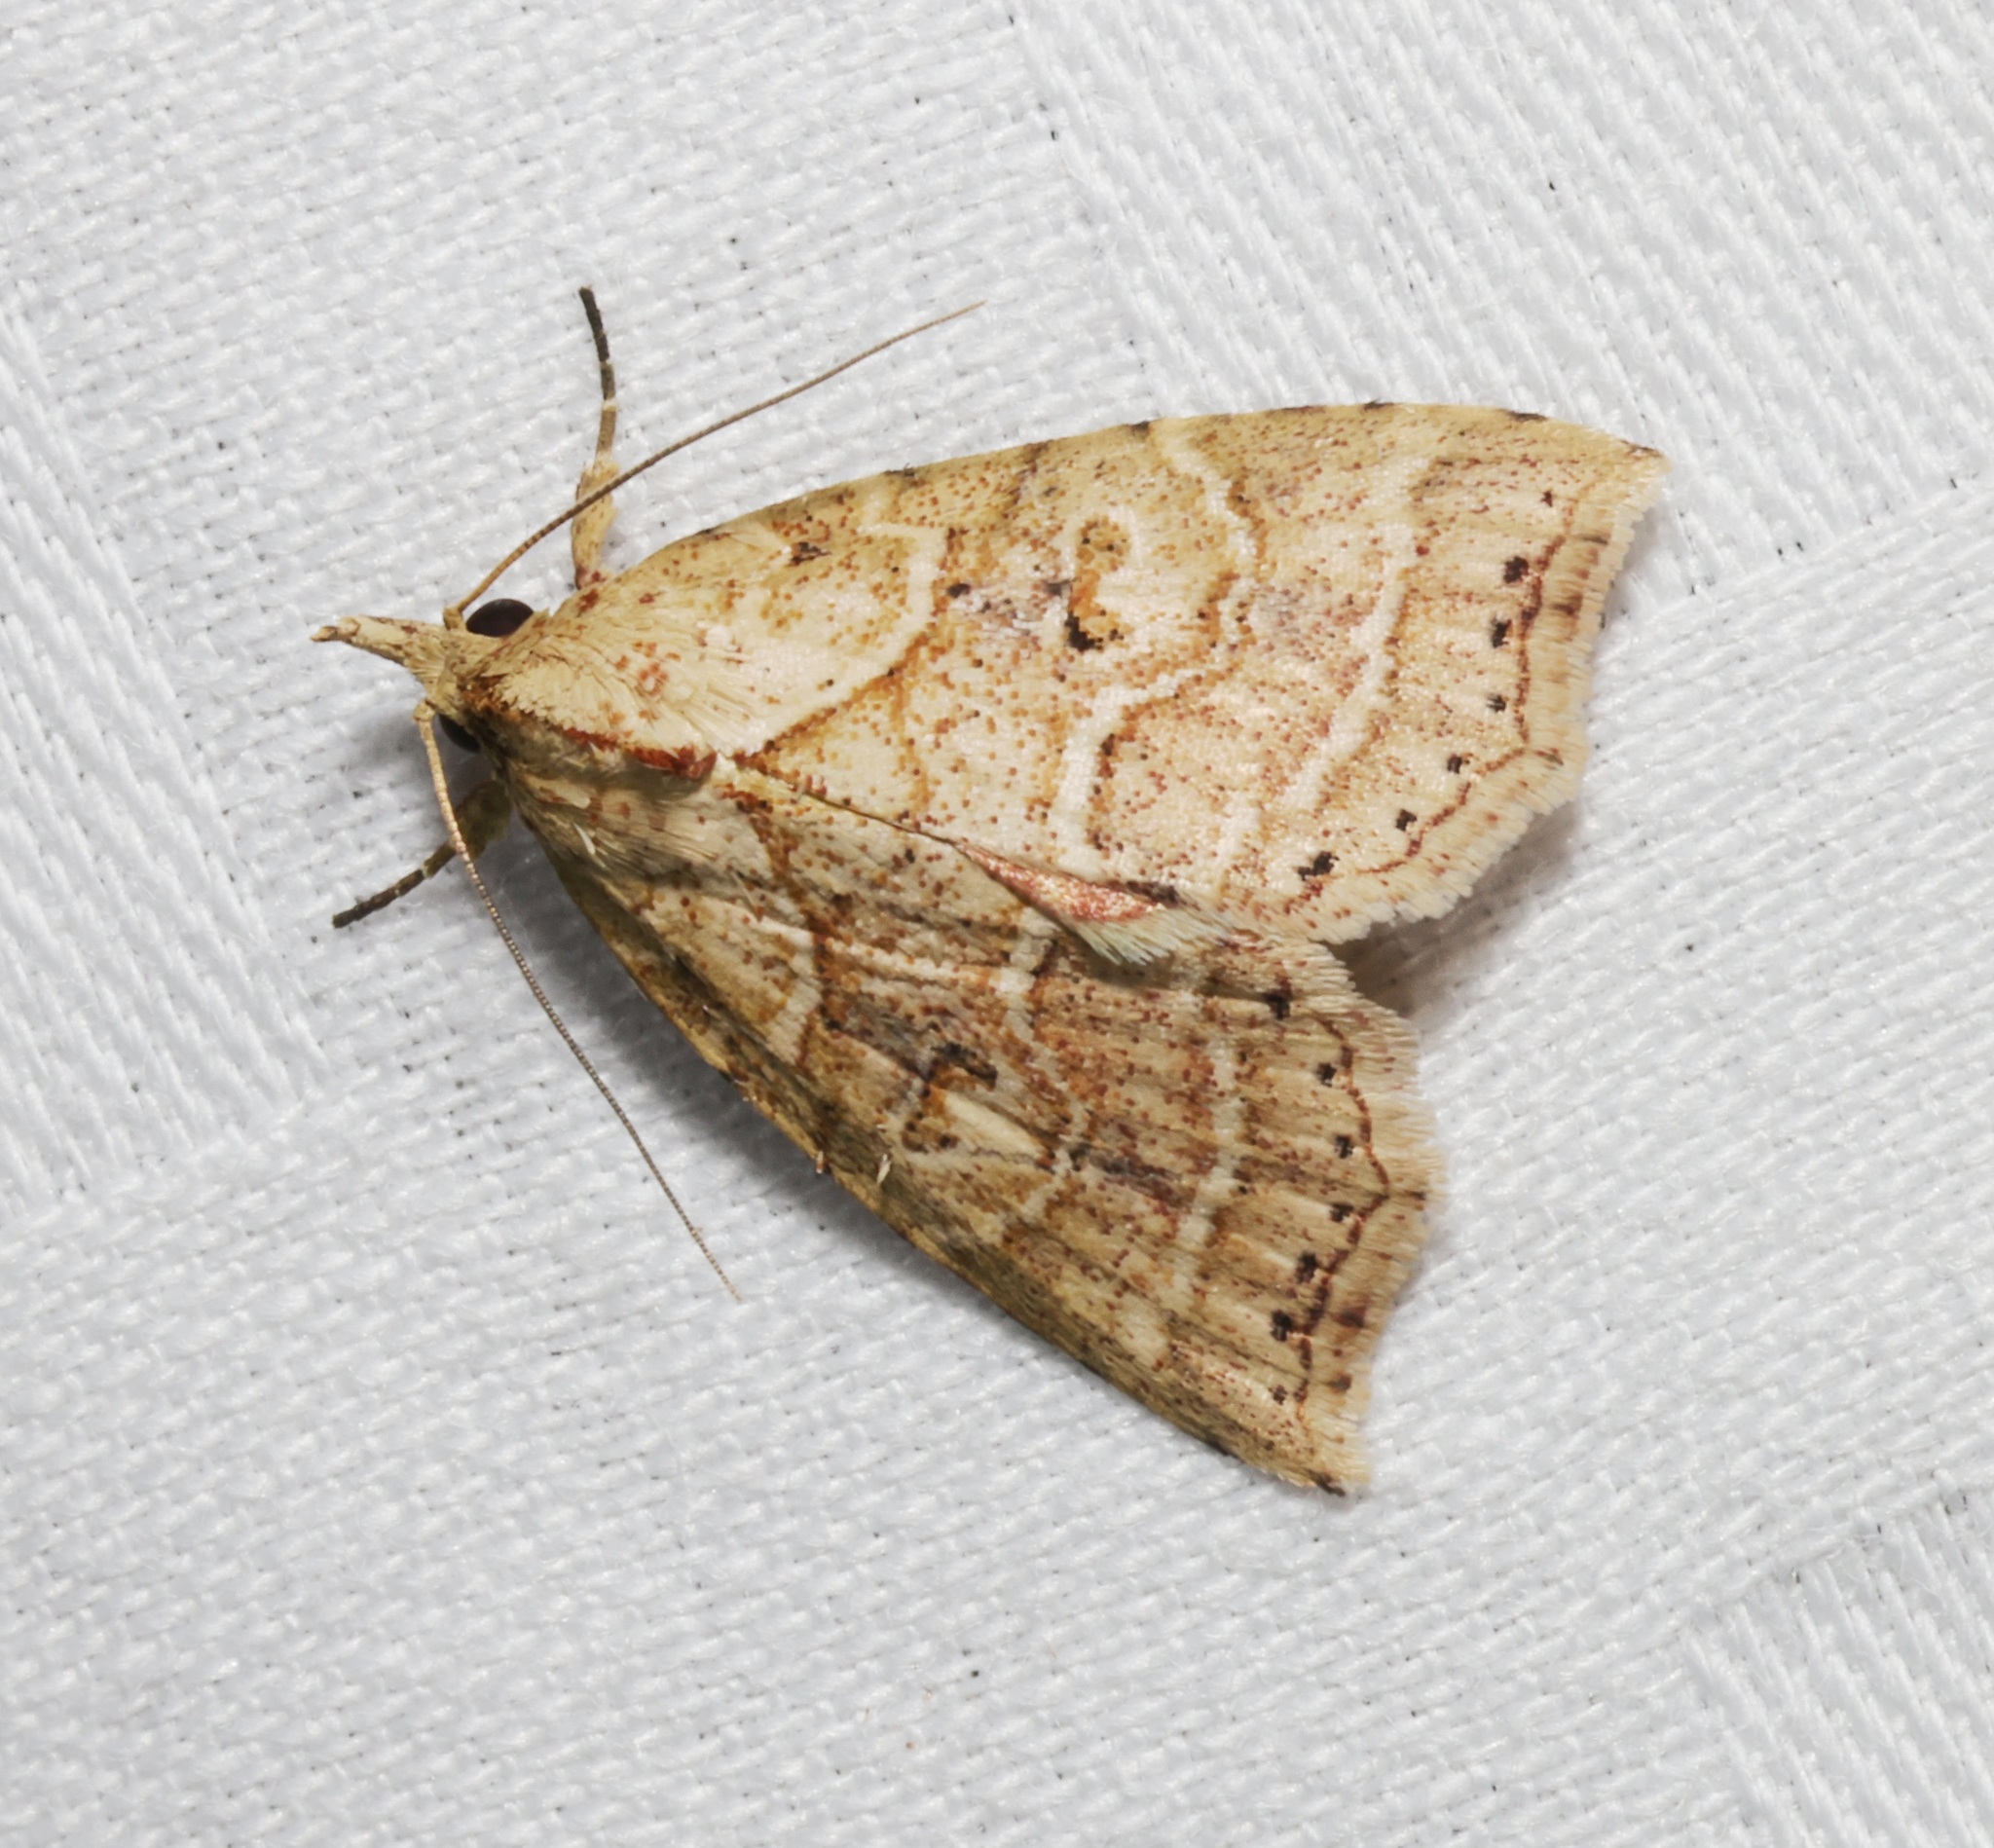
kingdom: Animalia
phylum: Arthropoda
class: Insecta
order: Lepidoptera
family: Erebidae
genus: Olulis
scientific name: Olulis puncticinctalis
